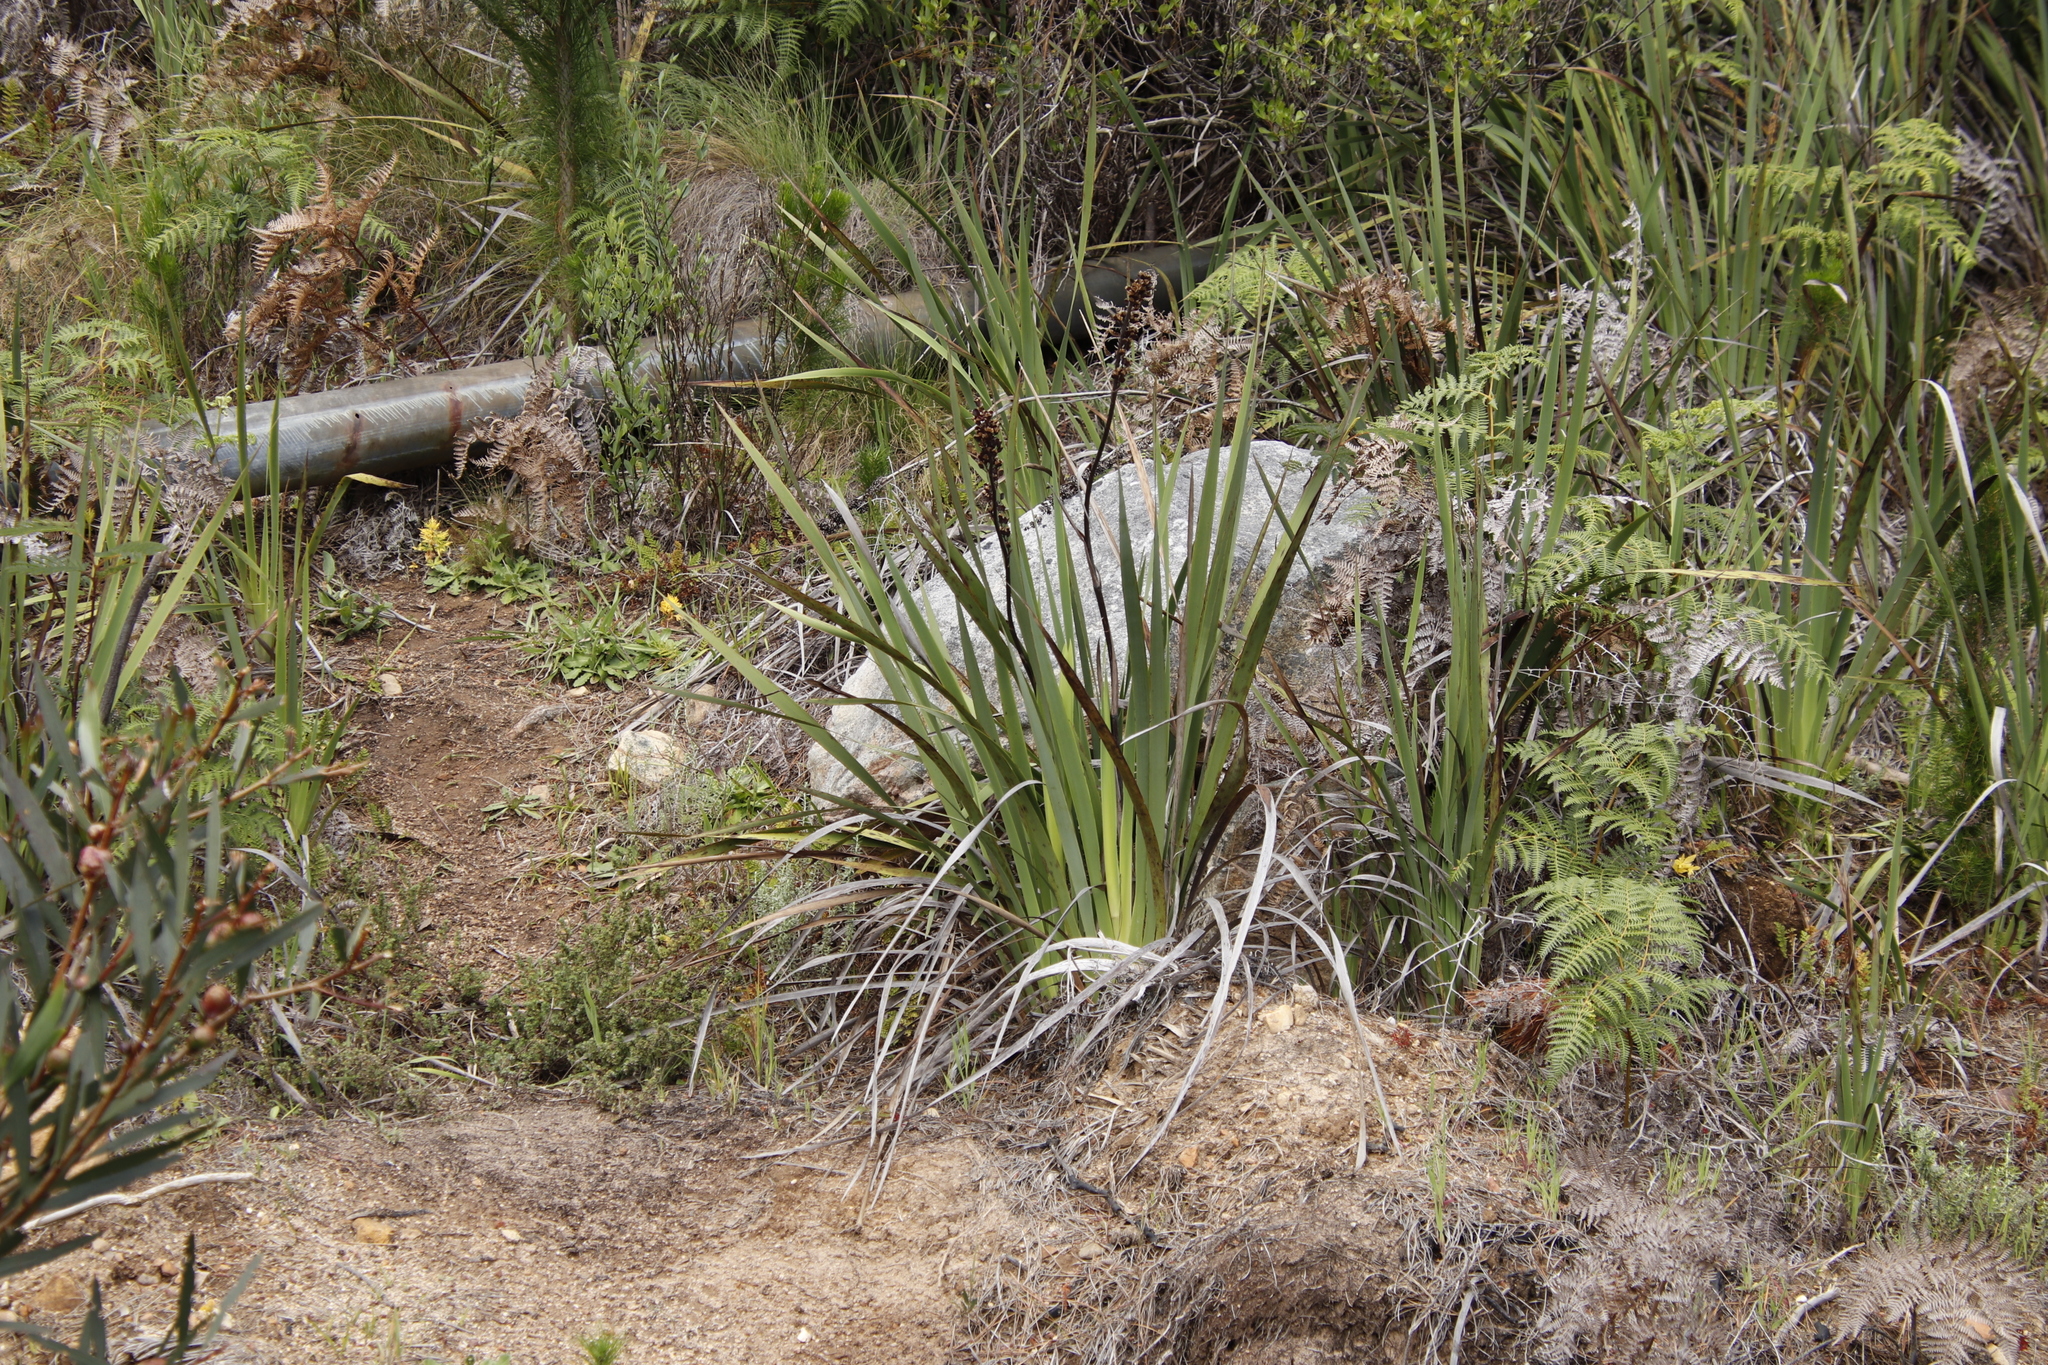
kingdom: Plantae
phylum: Tracheophyta
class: Liliopsida
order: Asparagales
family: Iridaceae
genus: Aristea
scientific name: Aristea capitata
